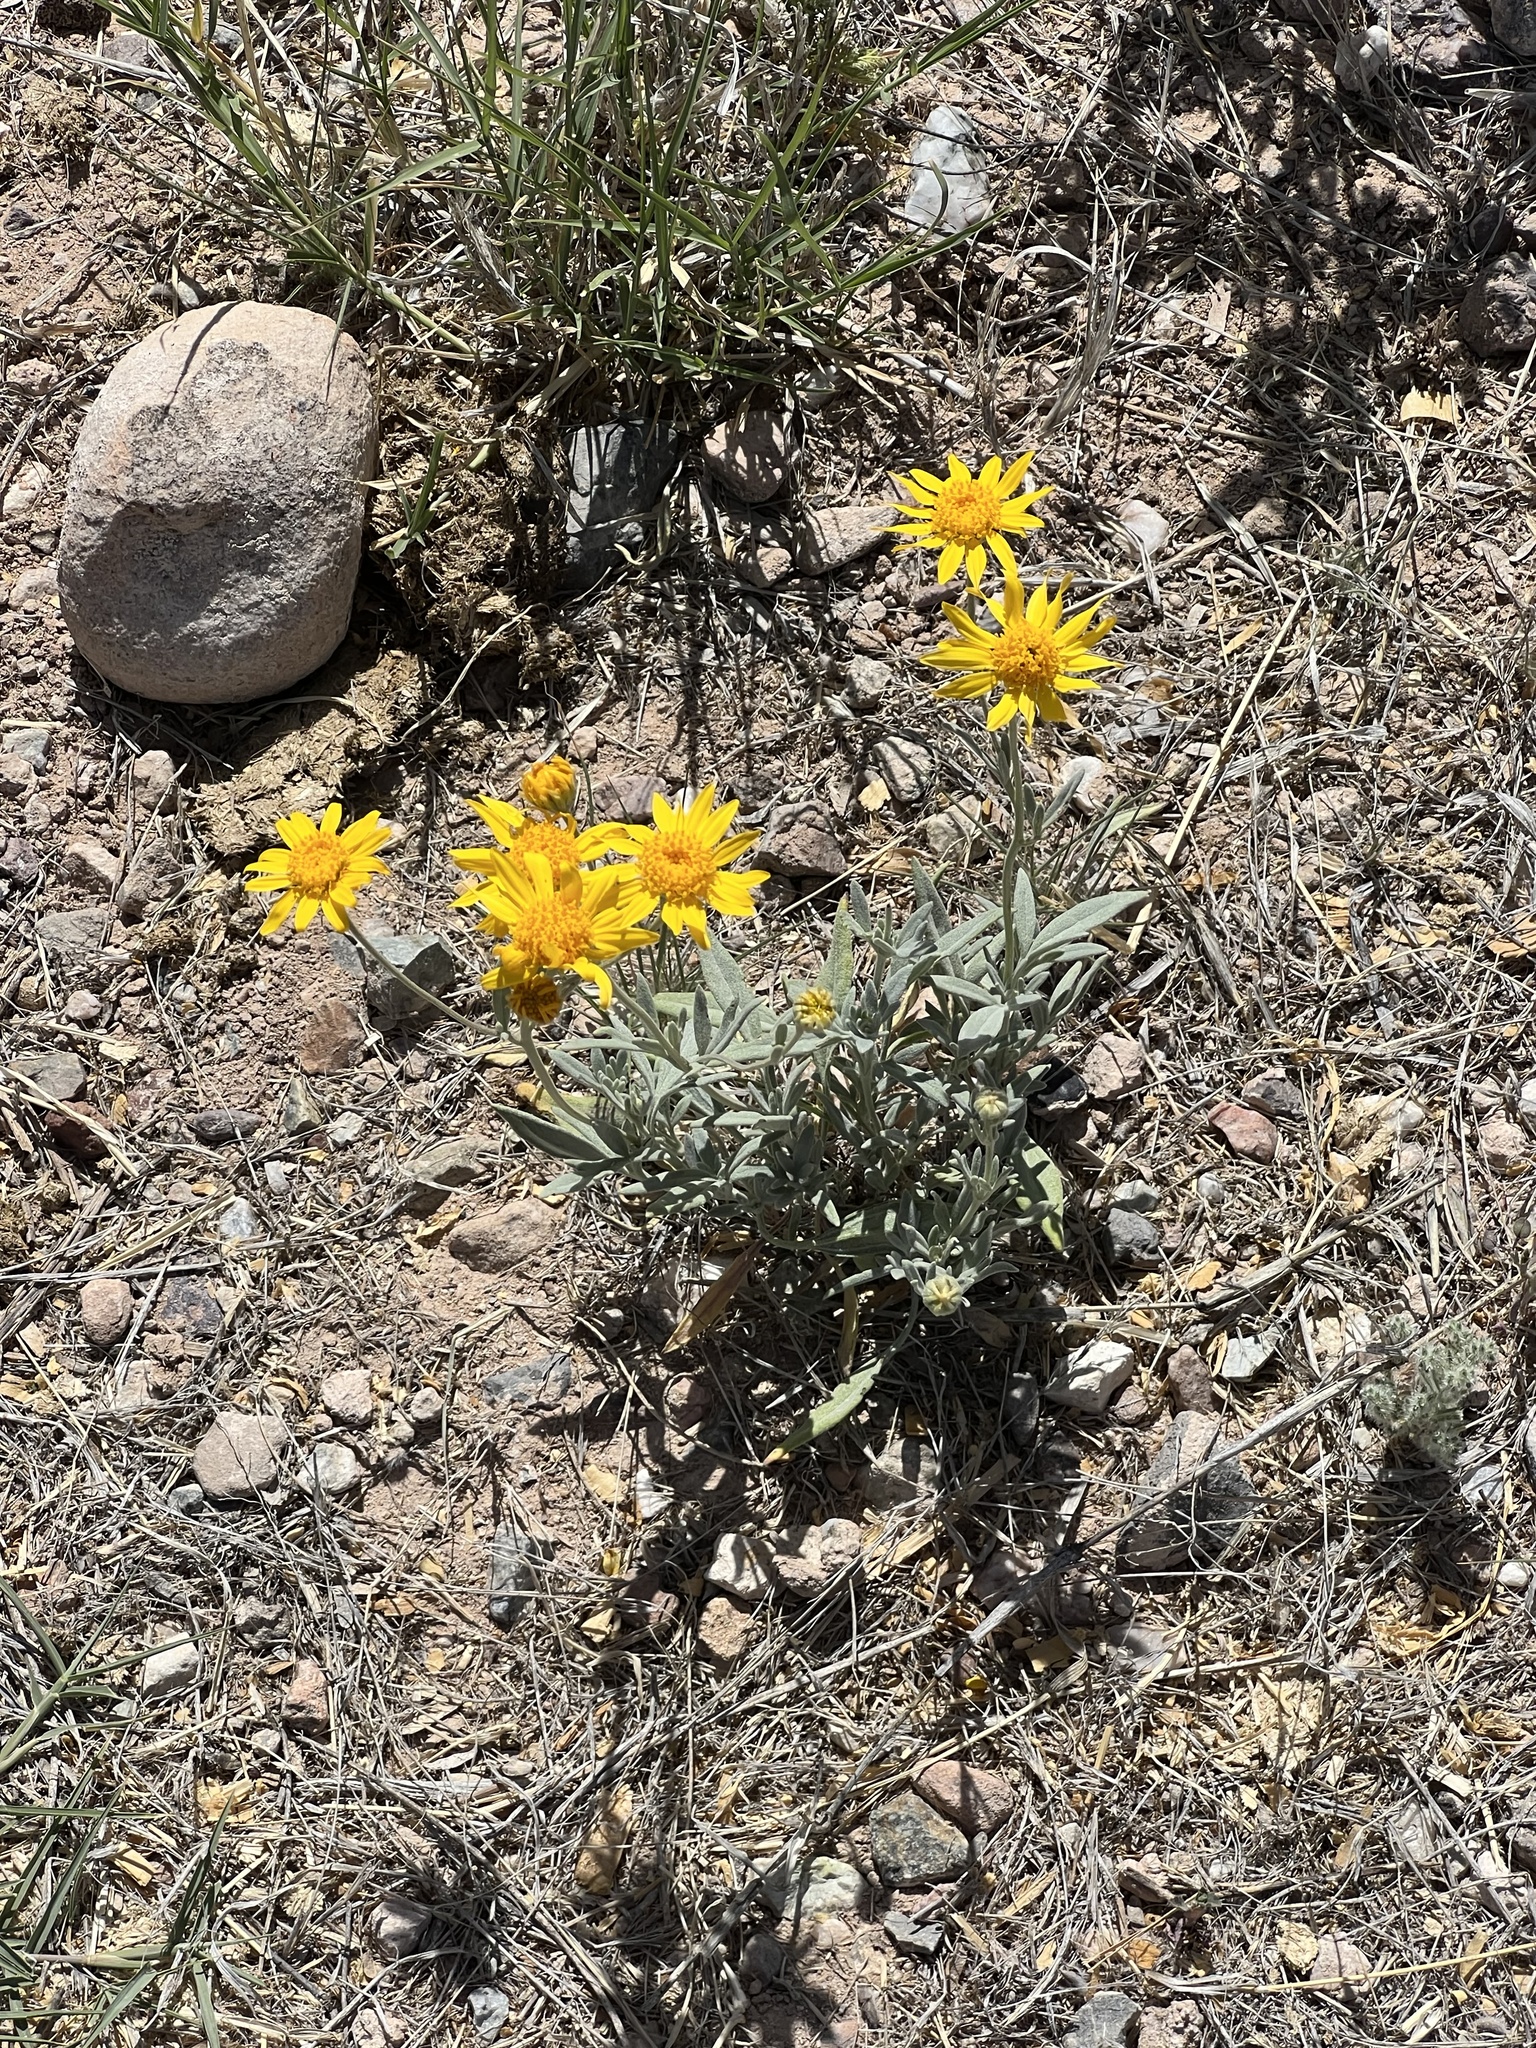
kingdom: Plantae
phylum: Tracheophyta
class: Magnoliopsida
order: Asterales
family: Asteraceae
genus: Picradeniopsis
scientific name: Picradeniopsis absinthifolia
